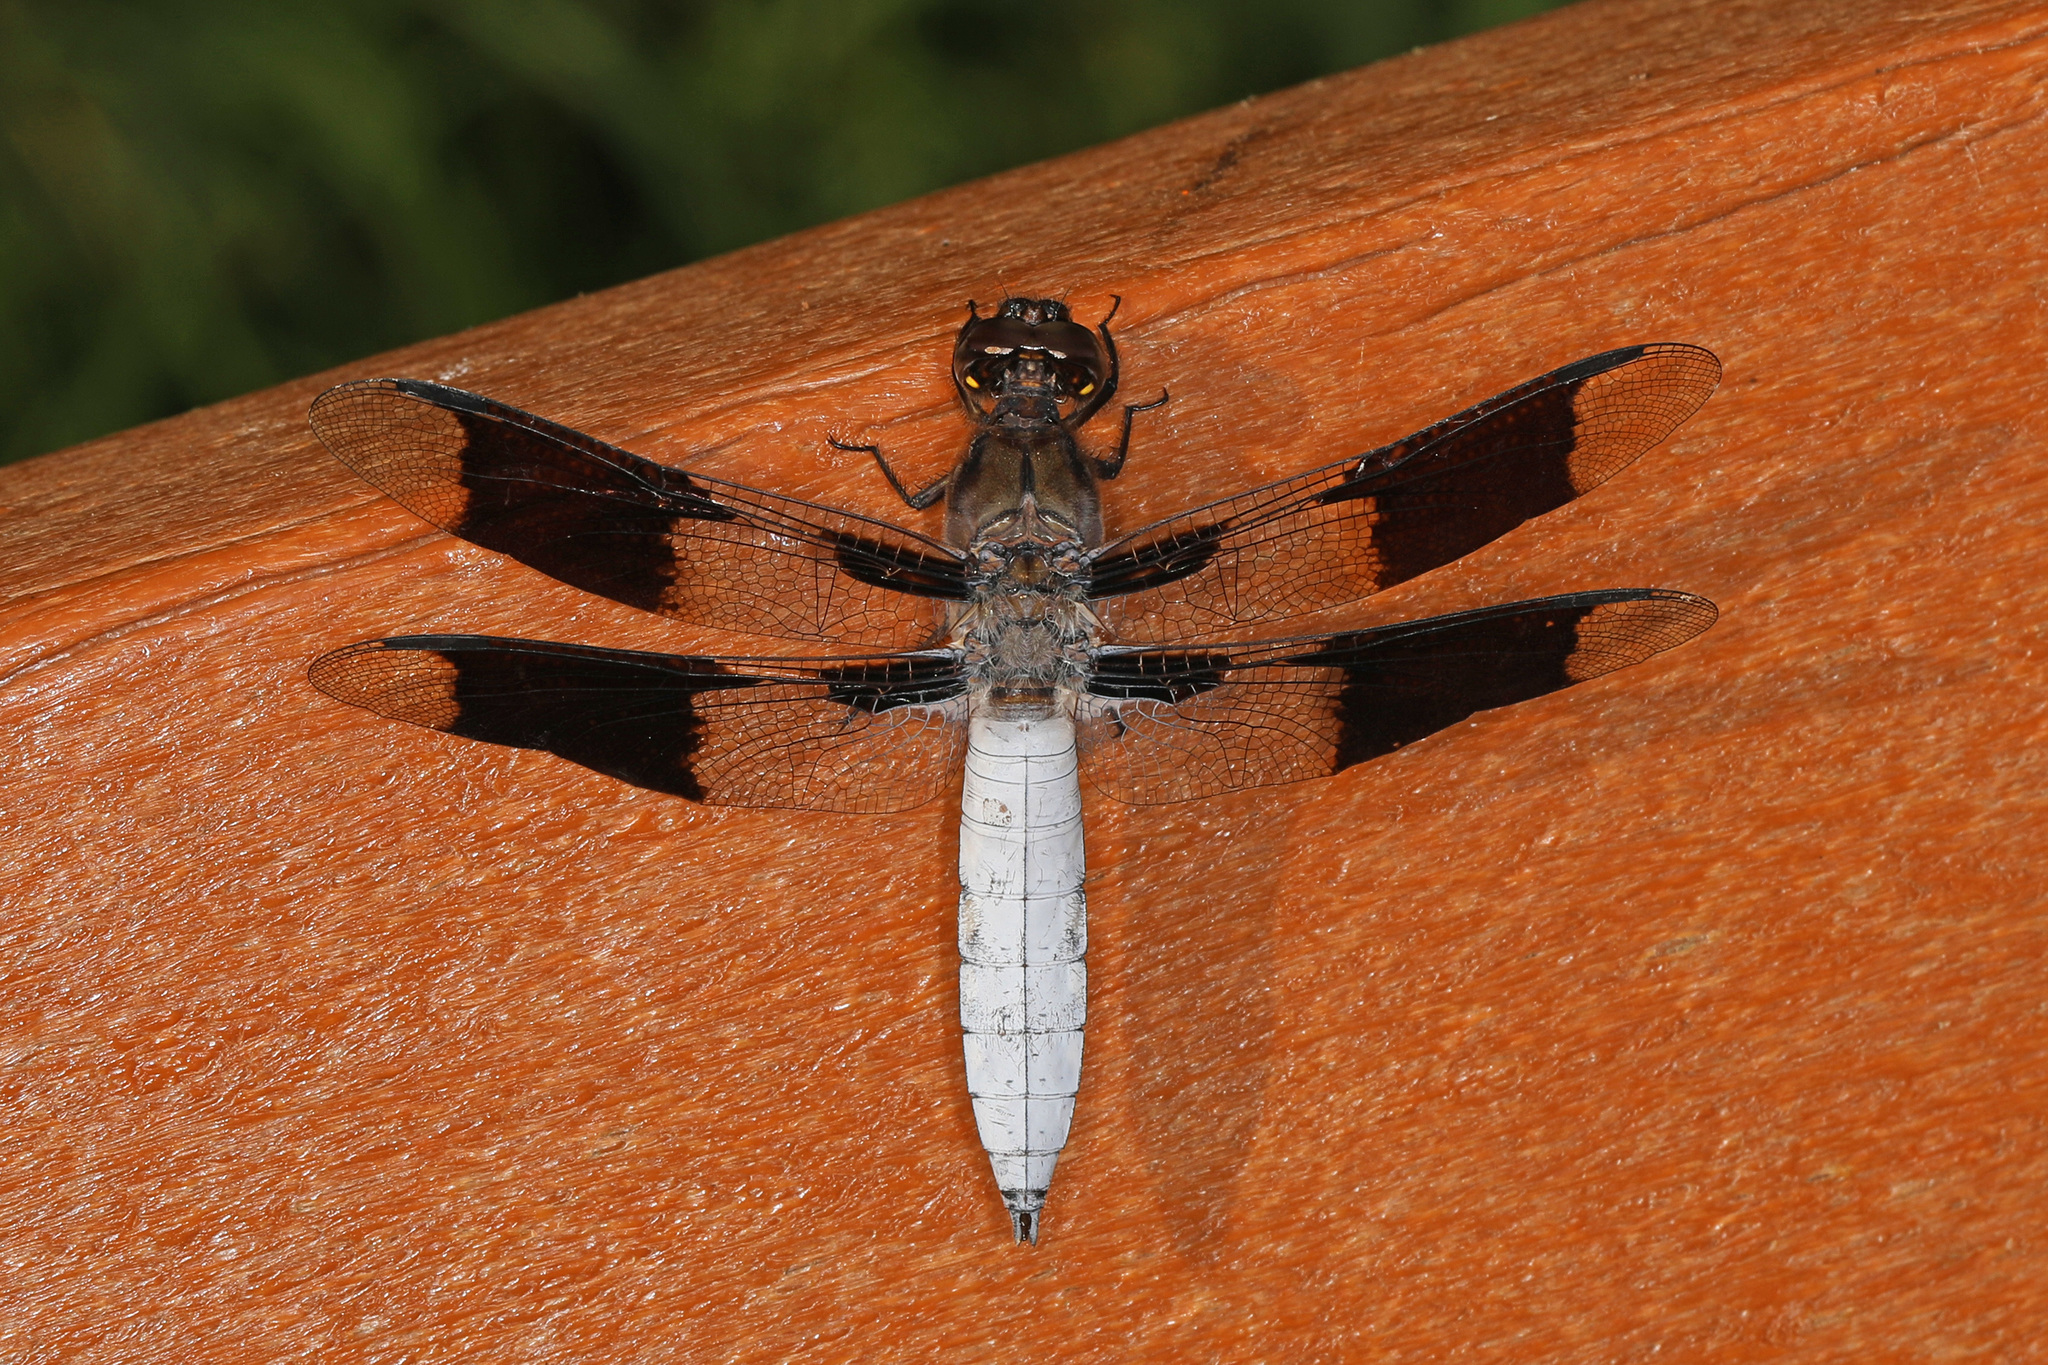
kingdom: Animalia
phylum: Arthropoda
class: Insecta
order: Odonata
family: Libellulidae
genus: Plathemis
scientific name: Plathemis lydia
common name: Common whitetail
